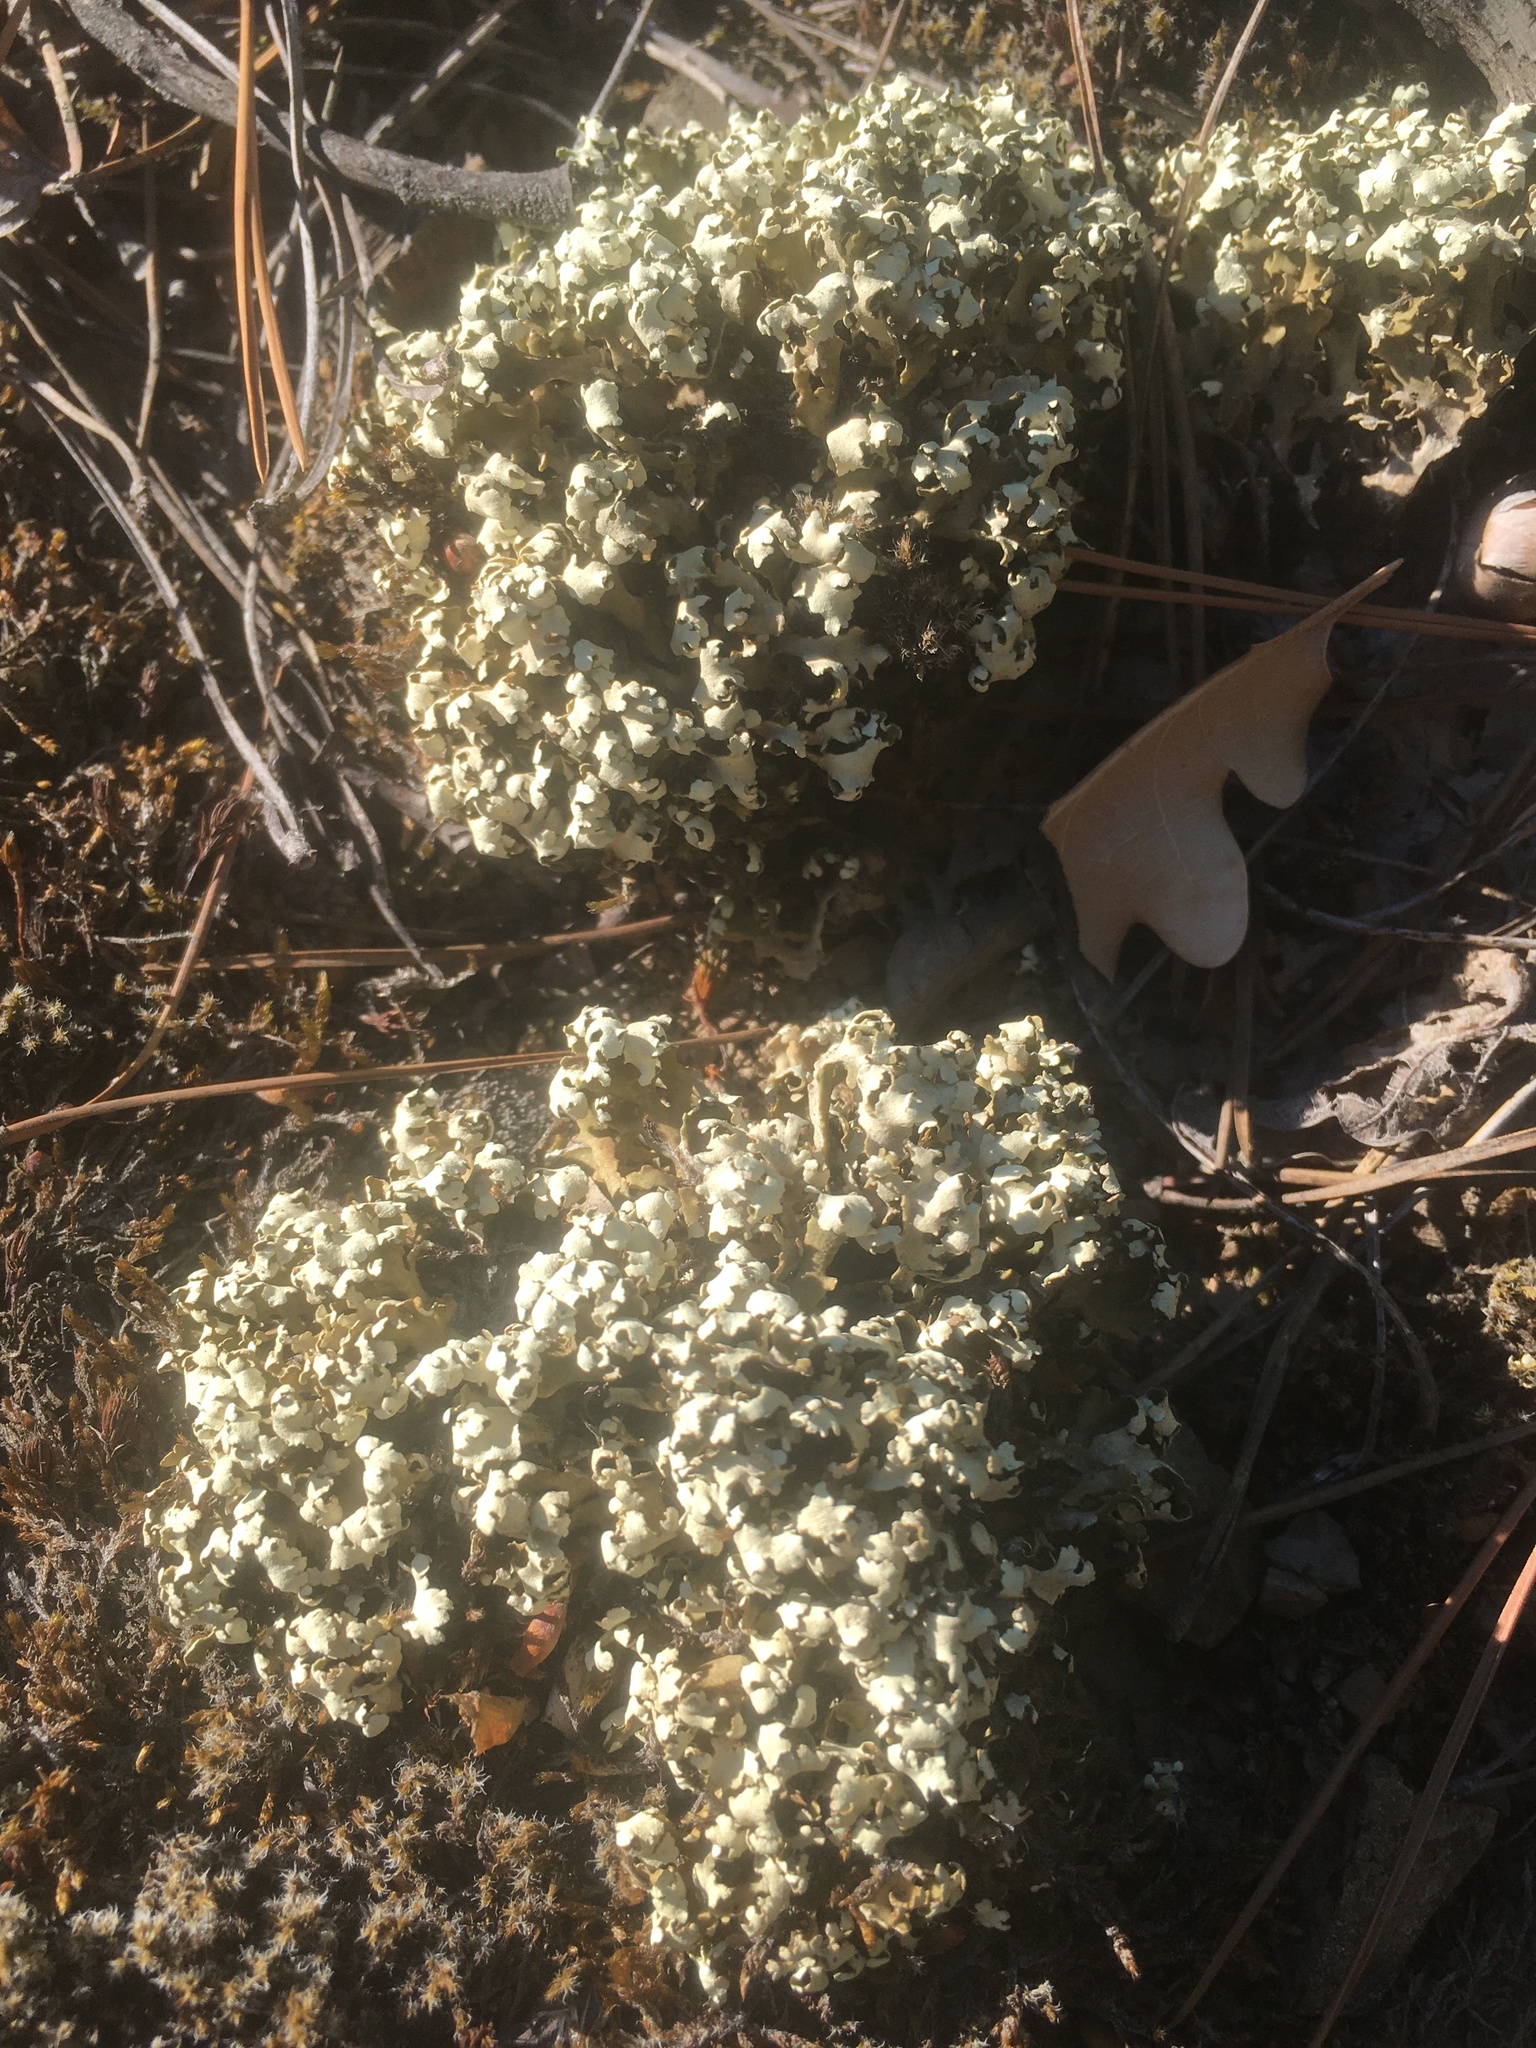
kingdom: Fungi
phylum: Ascomycota
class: Lecanoromycetes
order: Lecanorales
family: Cladoniaceae
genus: Cladonia
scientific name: Cladonia foliacea
